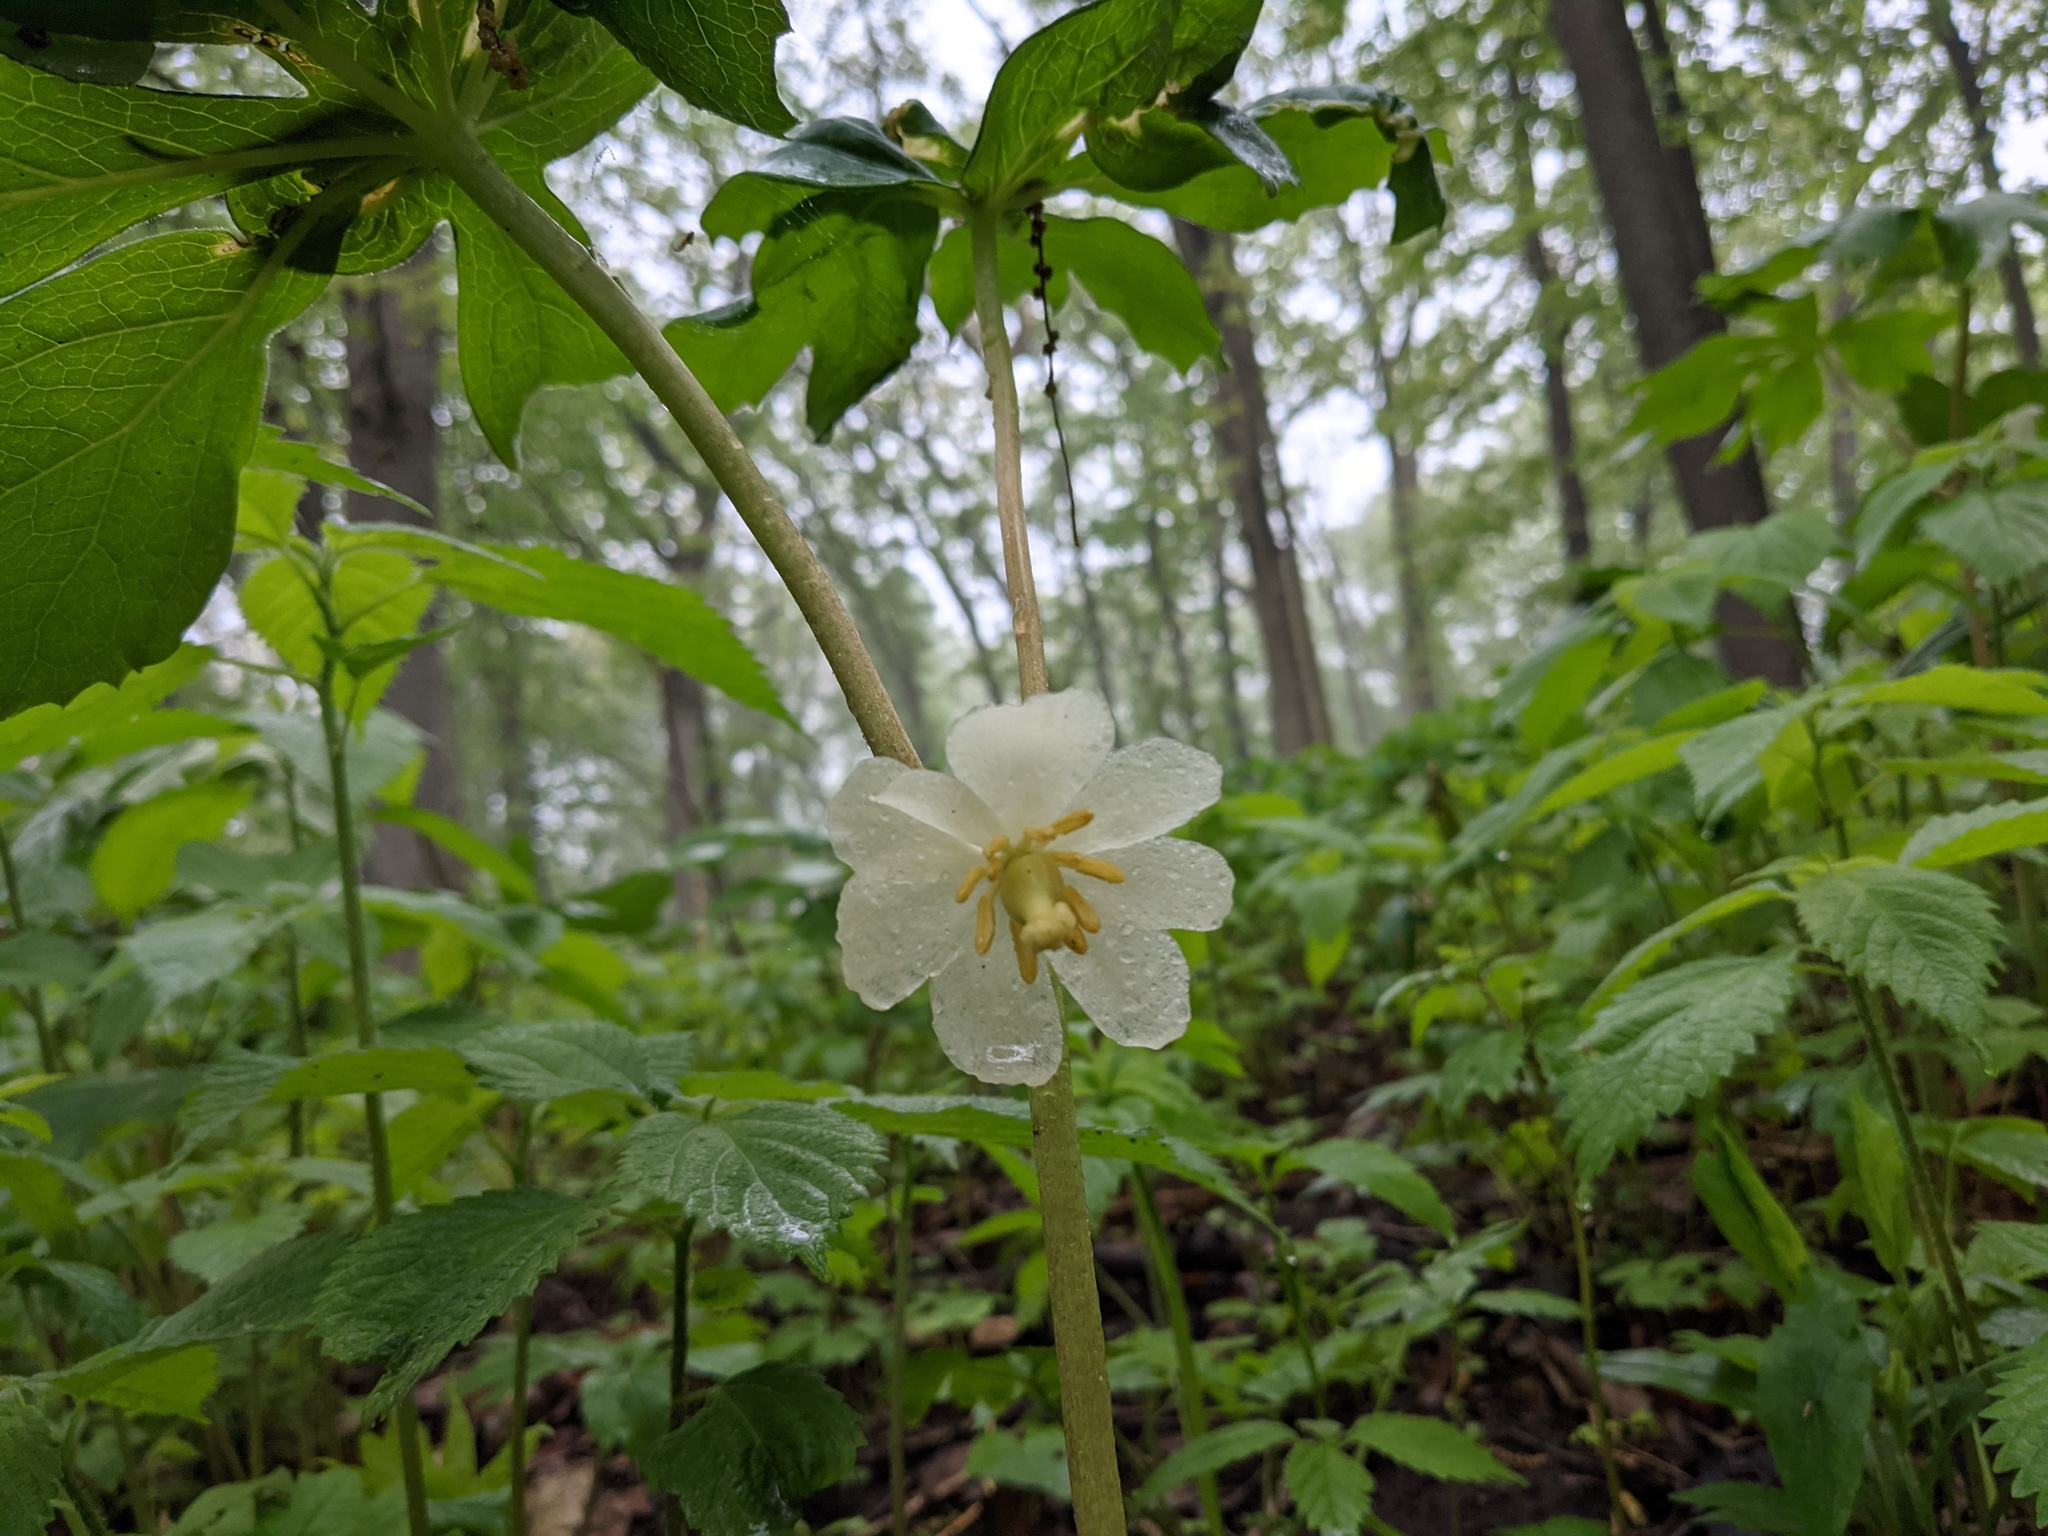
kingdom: Plantae
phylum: Tracheophyta
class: Magnoliopsida
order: Ranunculales
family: Berberidaceae
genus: Podophyllum
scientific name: Podophyllum peltatum
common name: Wild mandrake
